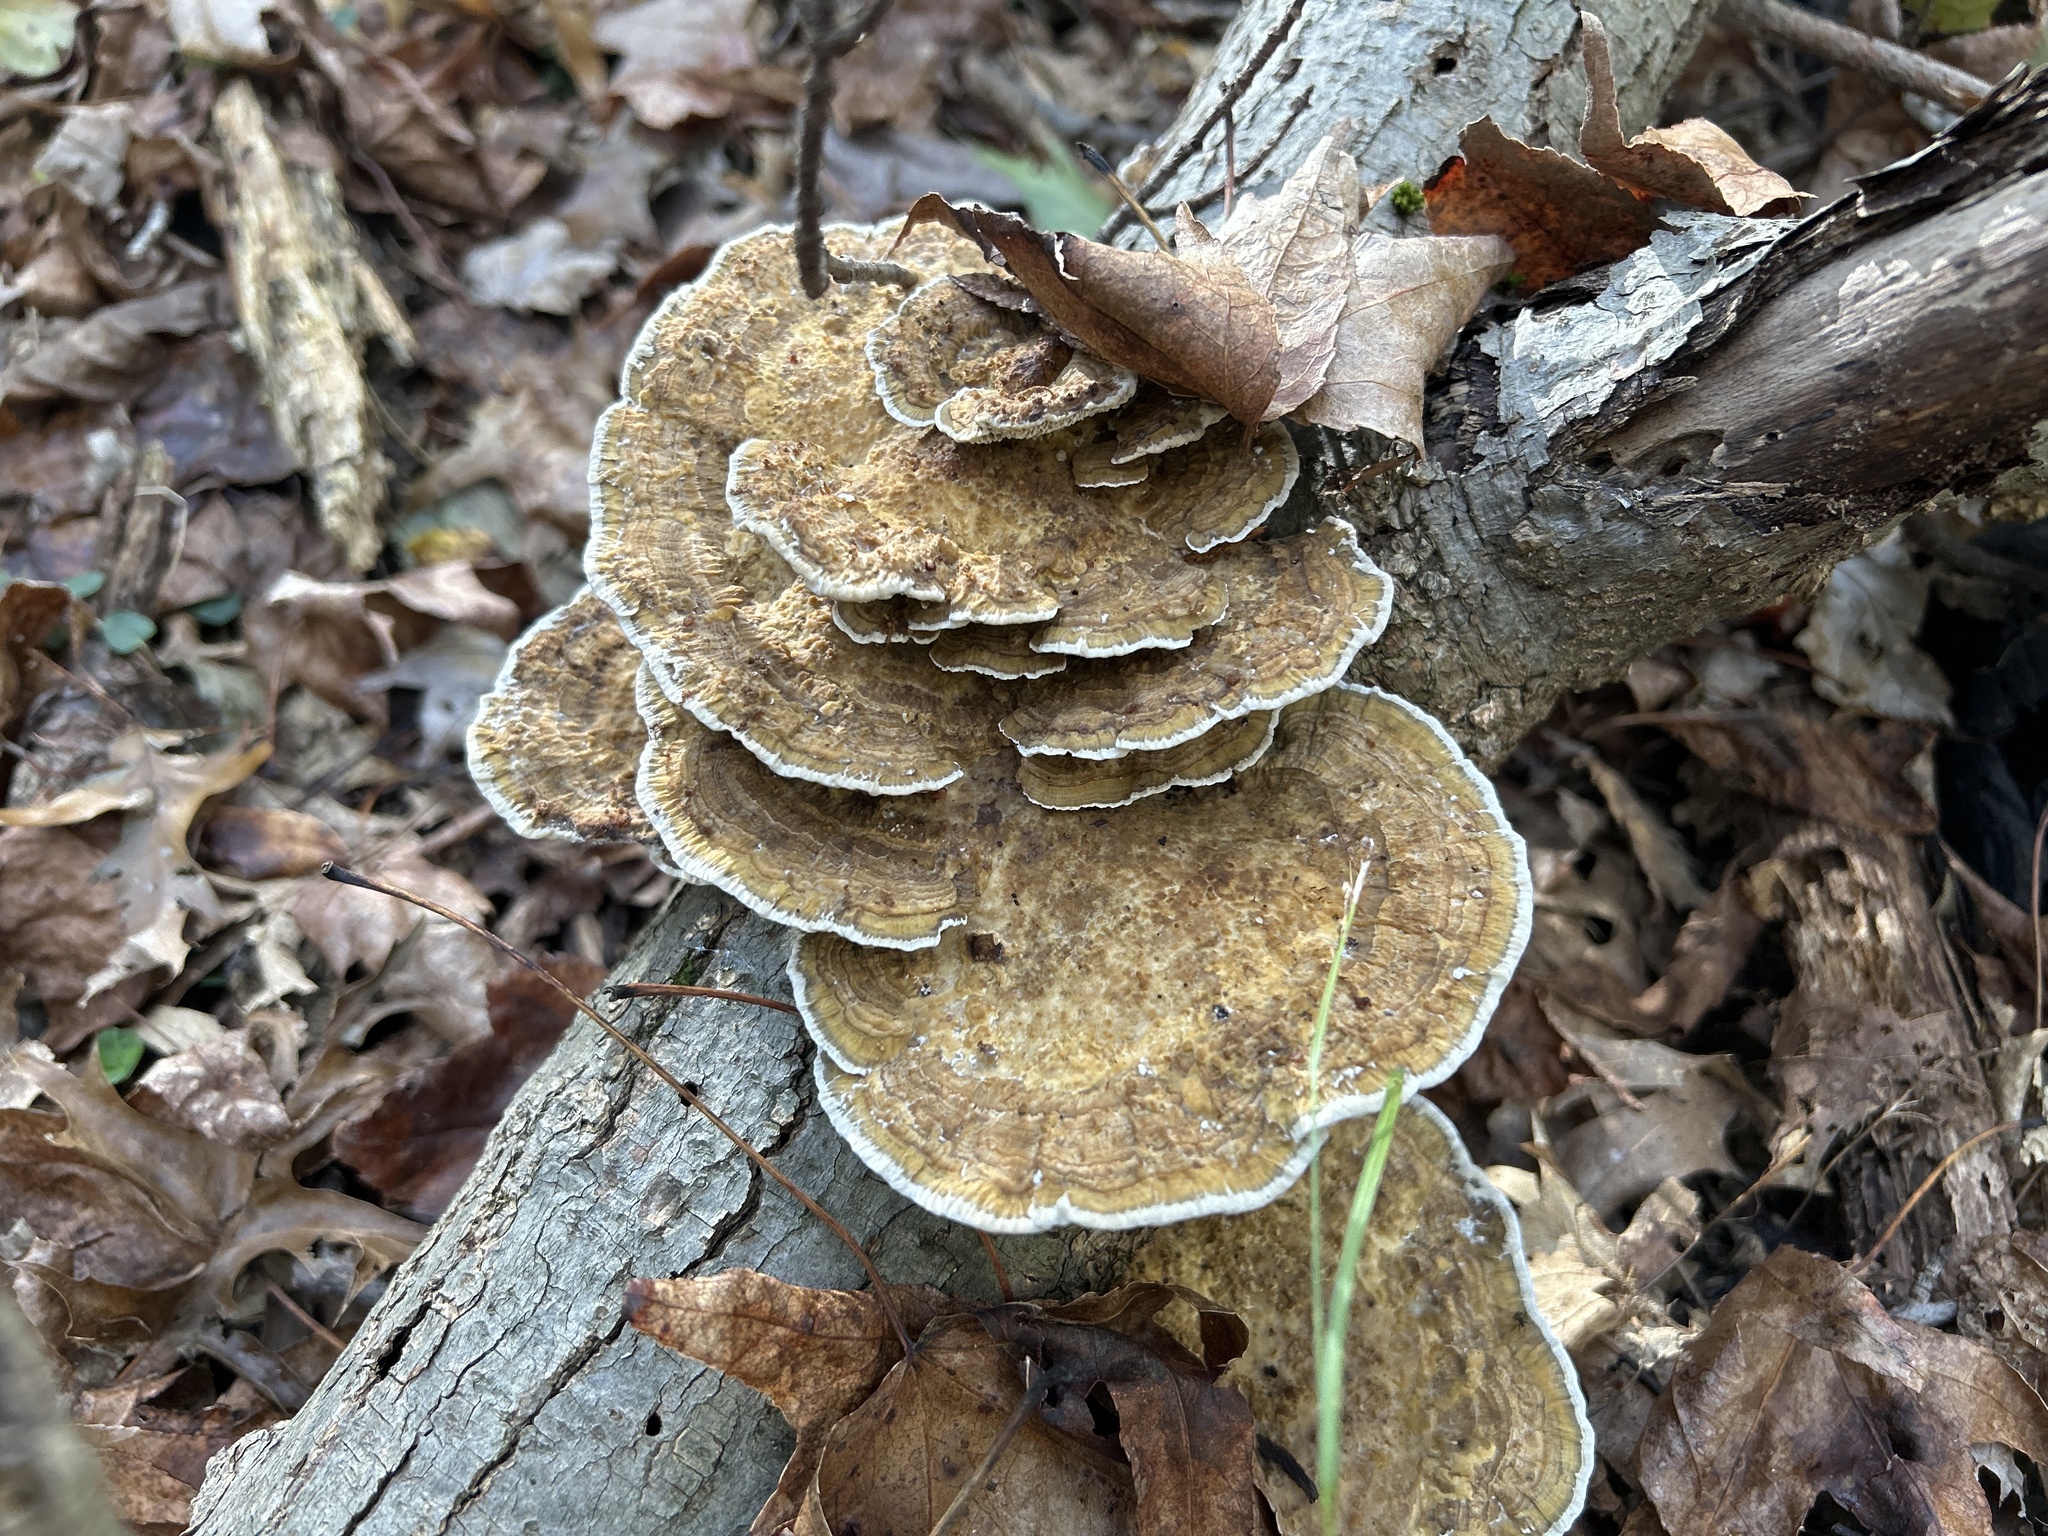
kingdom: Fungi
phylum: Basidiomycota
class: Agaricomycetes
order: Polyporales
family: Polyporaceae
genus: Daedaleopsis
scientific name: Daedaleopsis confragosa
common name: Blushing bracket
